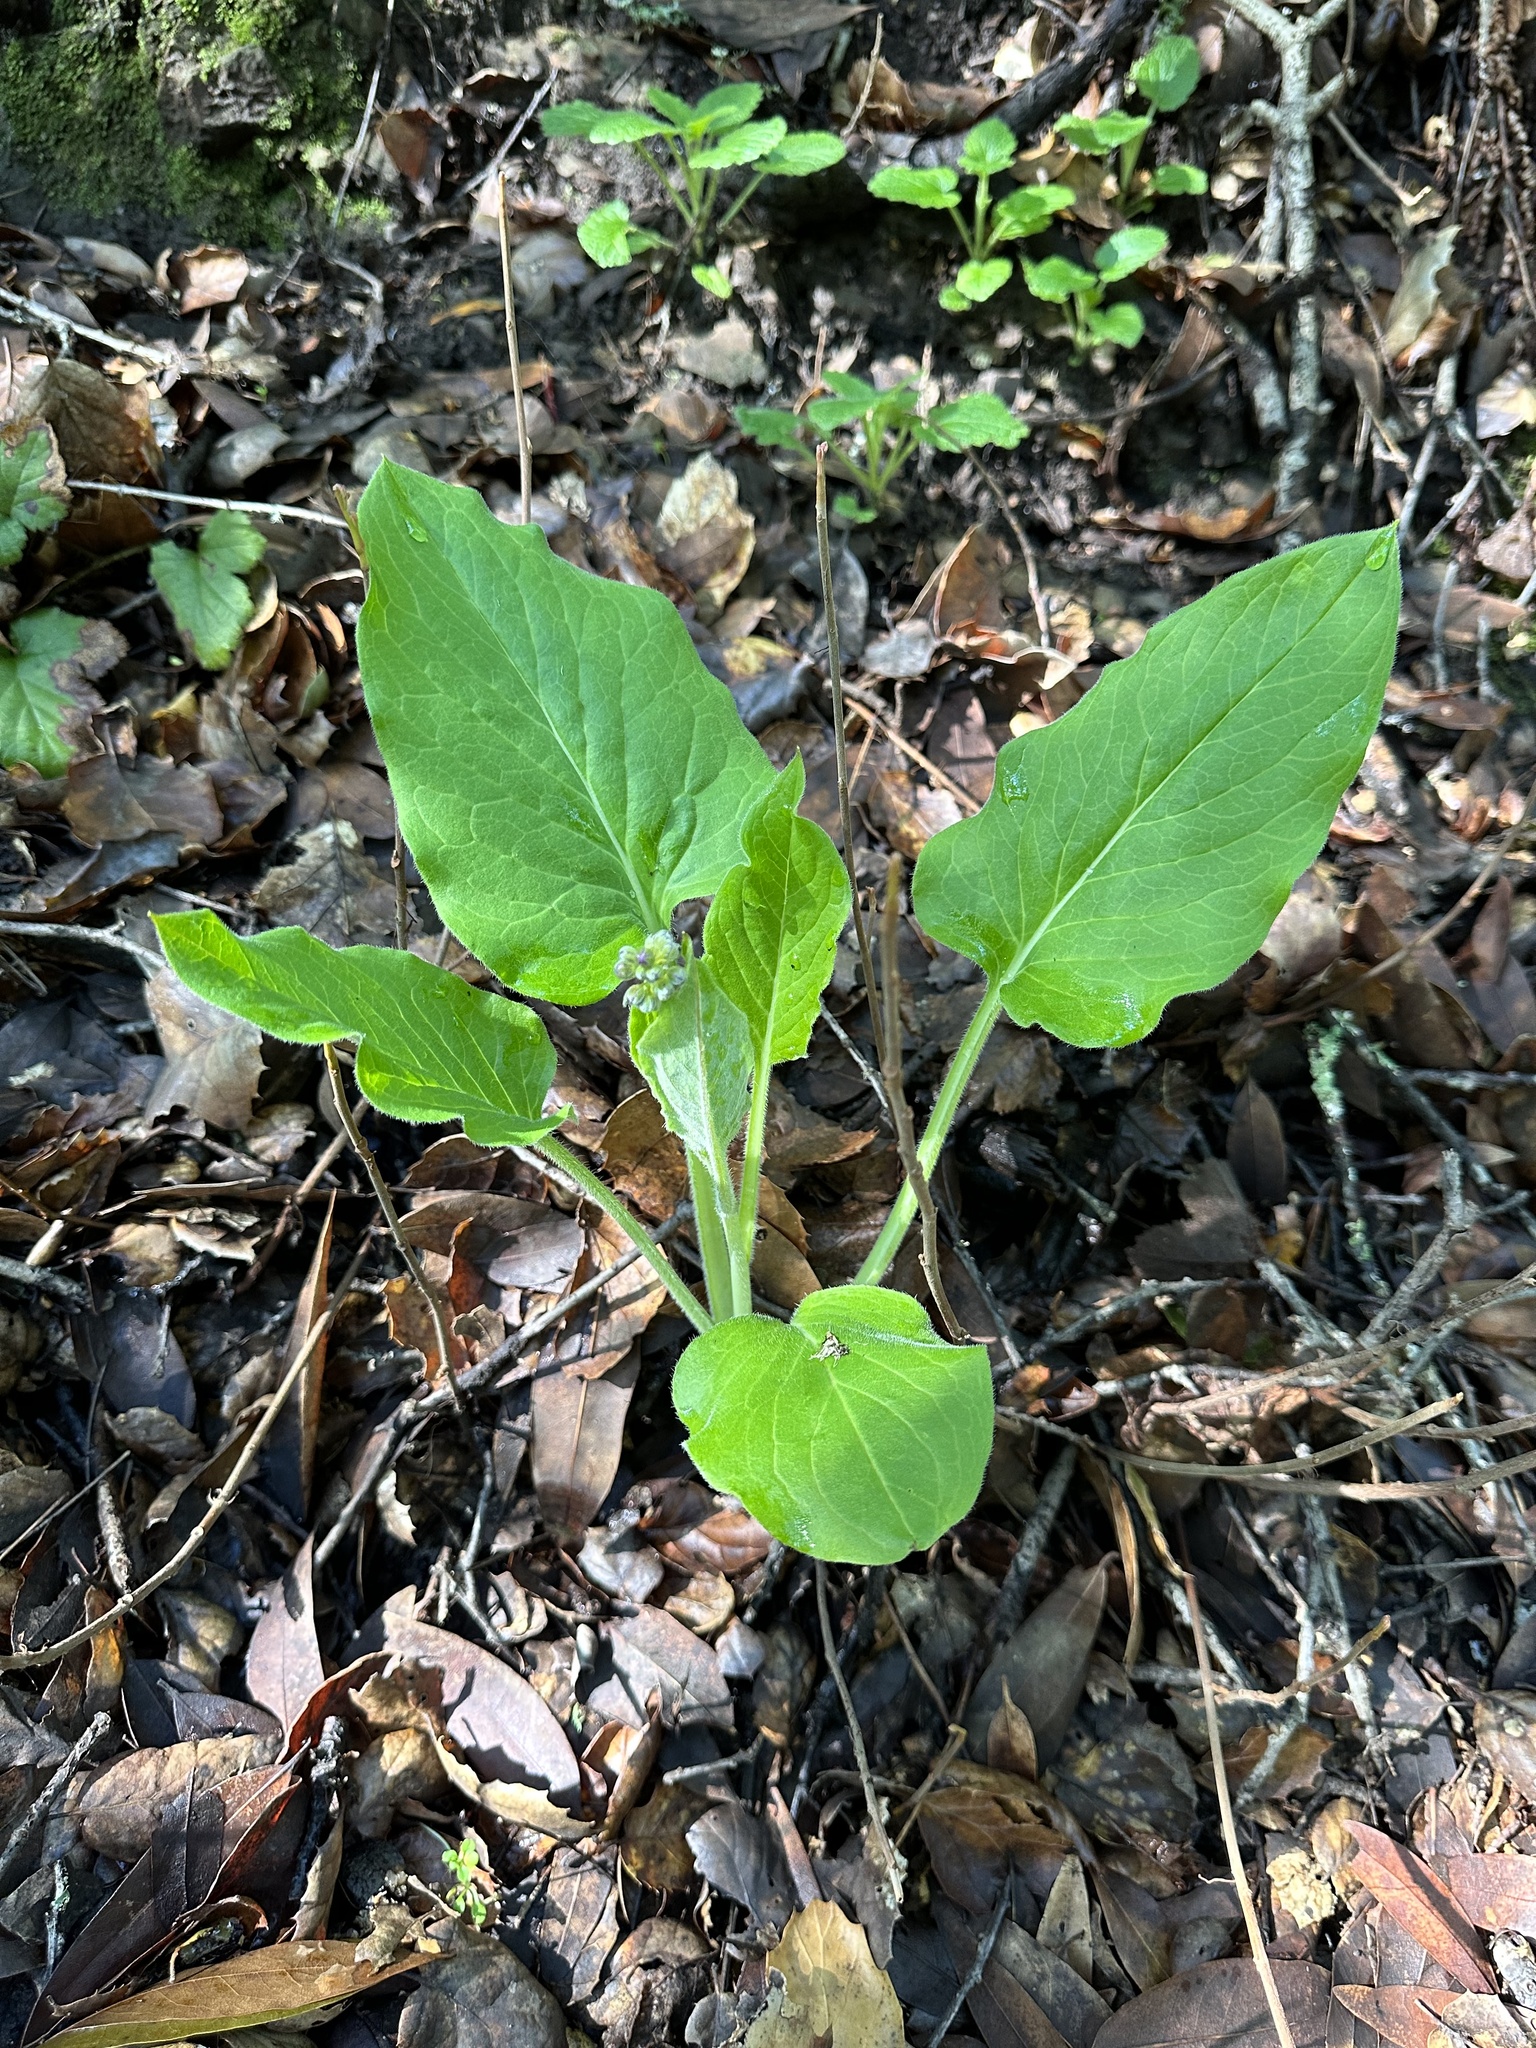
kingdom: Plantae
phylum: Tracheophyta
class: Magnoliopsida
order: Boraginales
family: Boraginaceae
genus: Adelinia
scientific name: Adelinia grande
